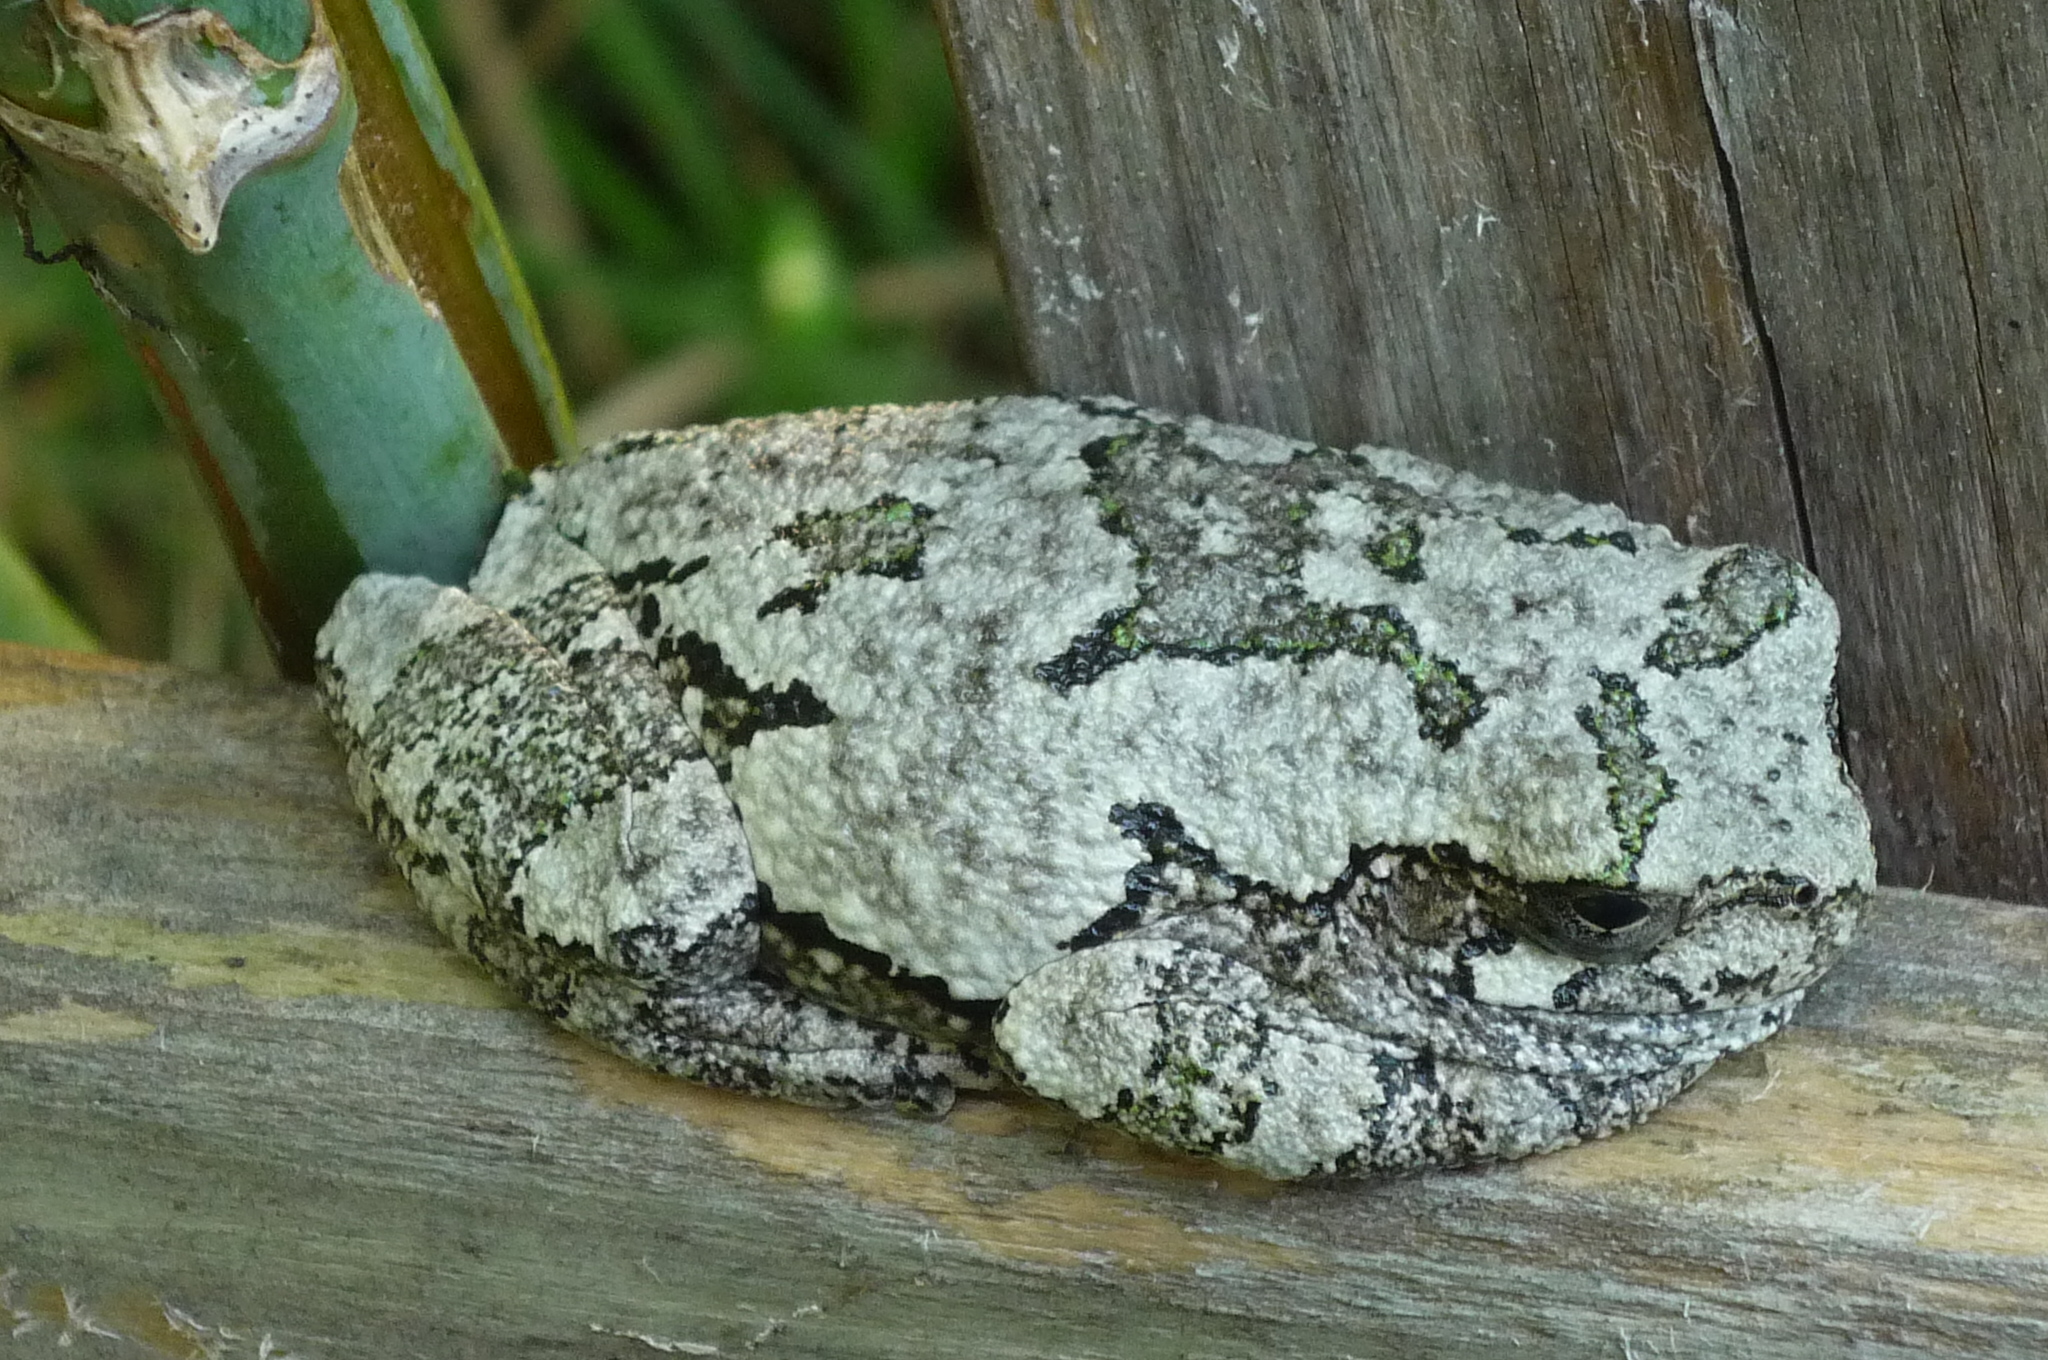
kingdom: Animalia
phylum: Chordata
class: Amphibia
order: Anura
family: Hylidae
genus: Dryophytes
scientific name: Dryophytes versicolor
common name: Gray treefrog
